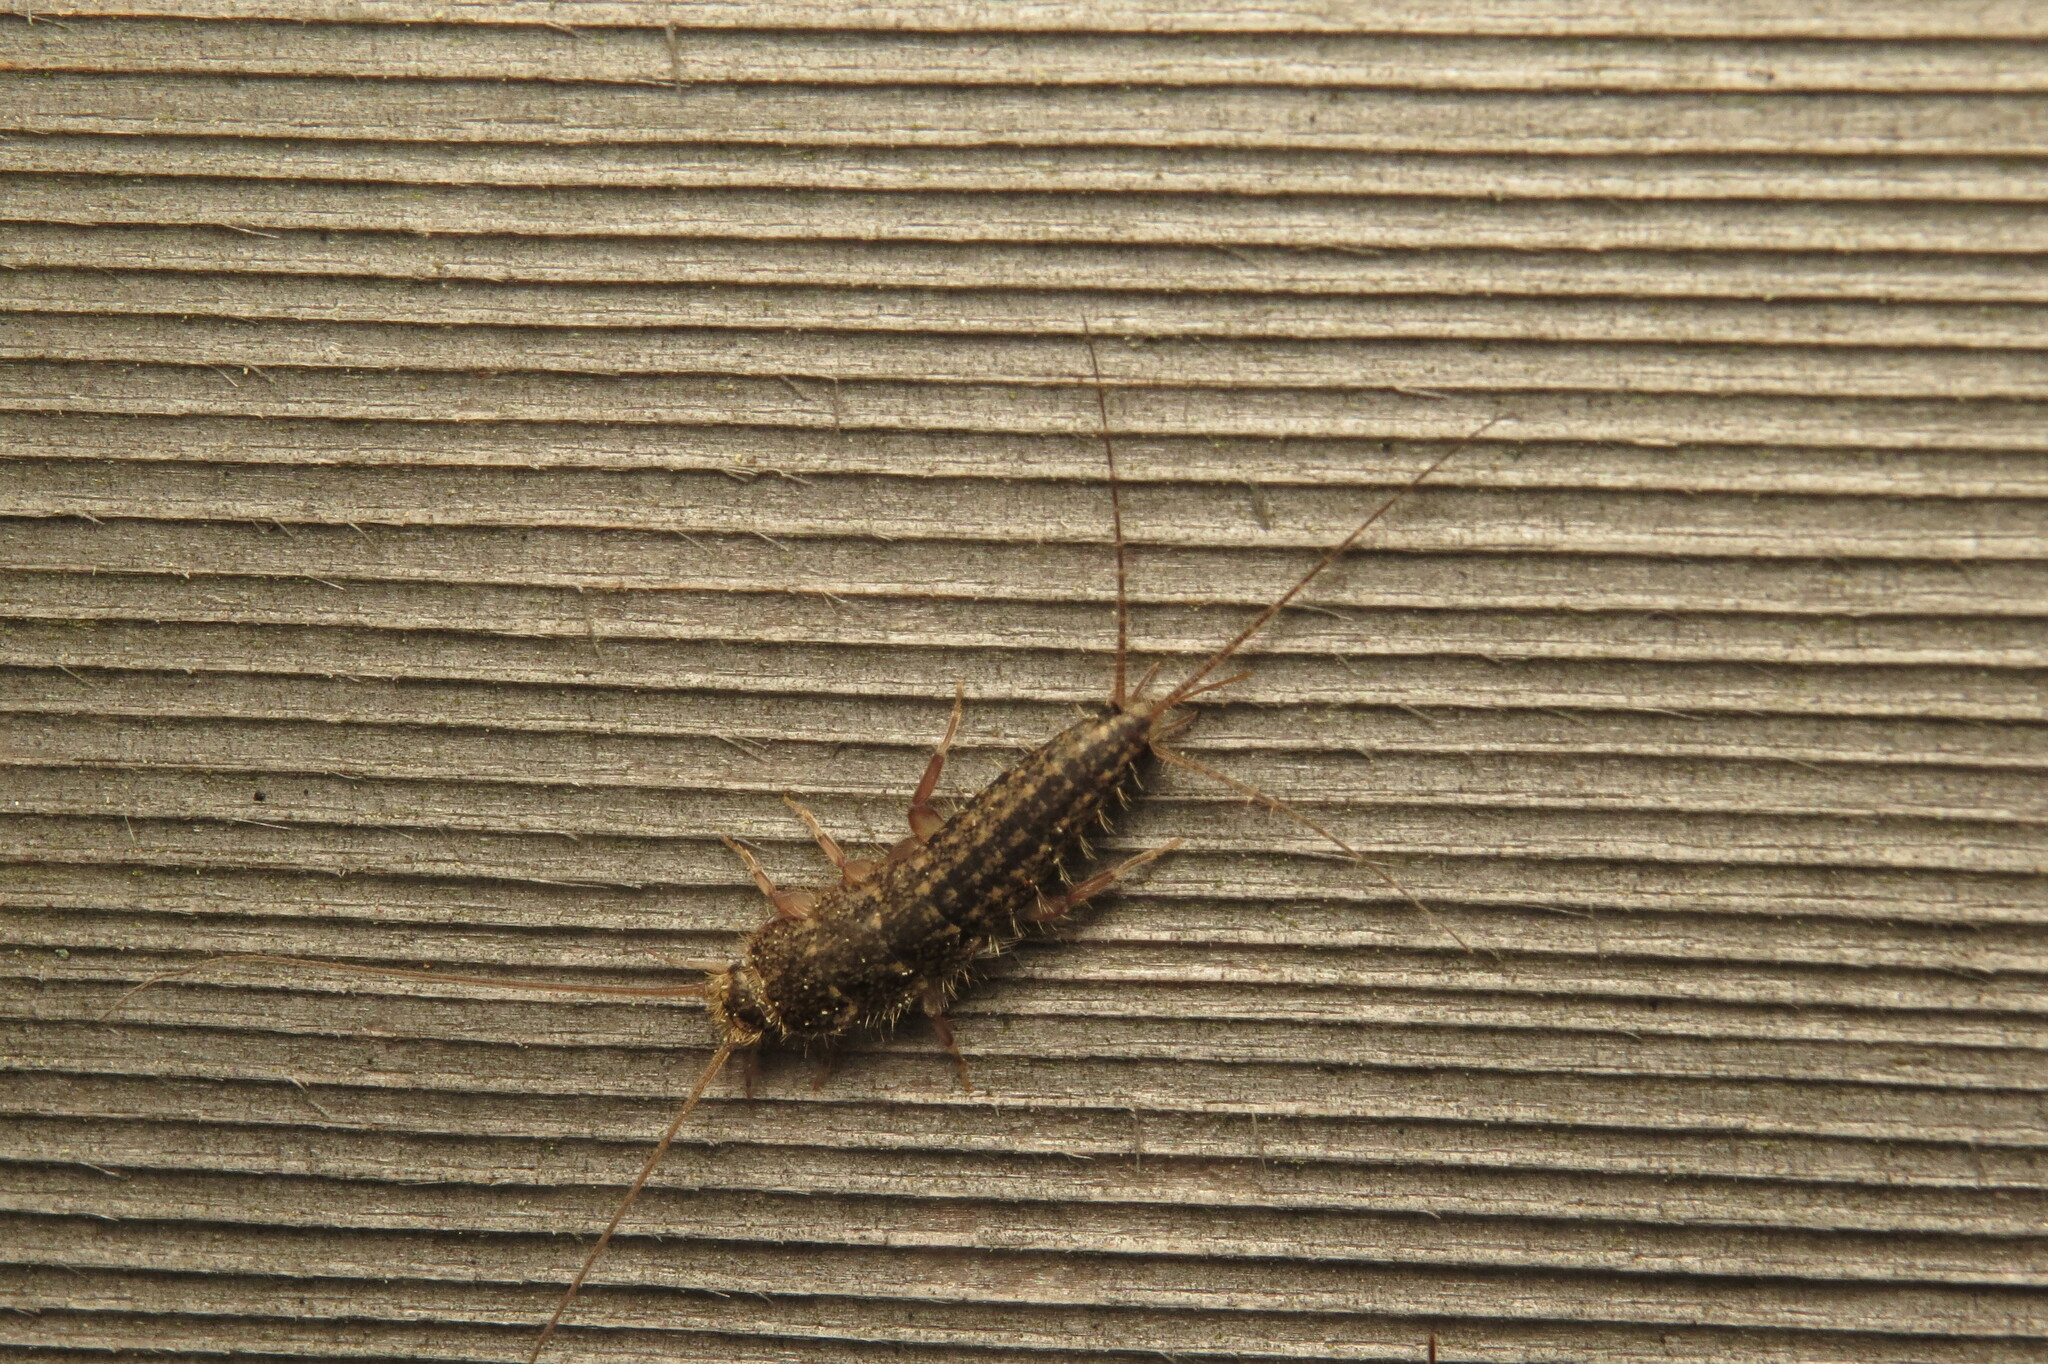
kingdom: Animalia
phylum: Arthropoda
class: Insecta
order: Zygentoma
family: Lepismatidae
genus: Ctenolepisma
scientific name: Ctenolepisma lineata
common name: Four-lined silverfish
